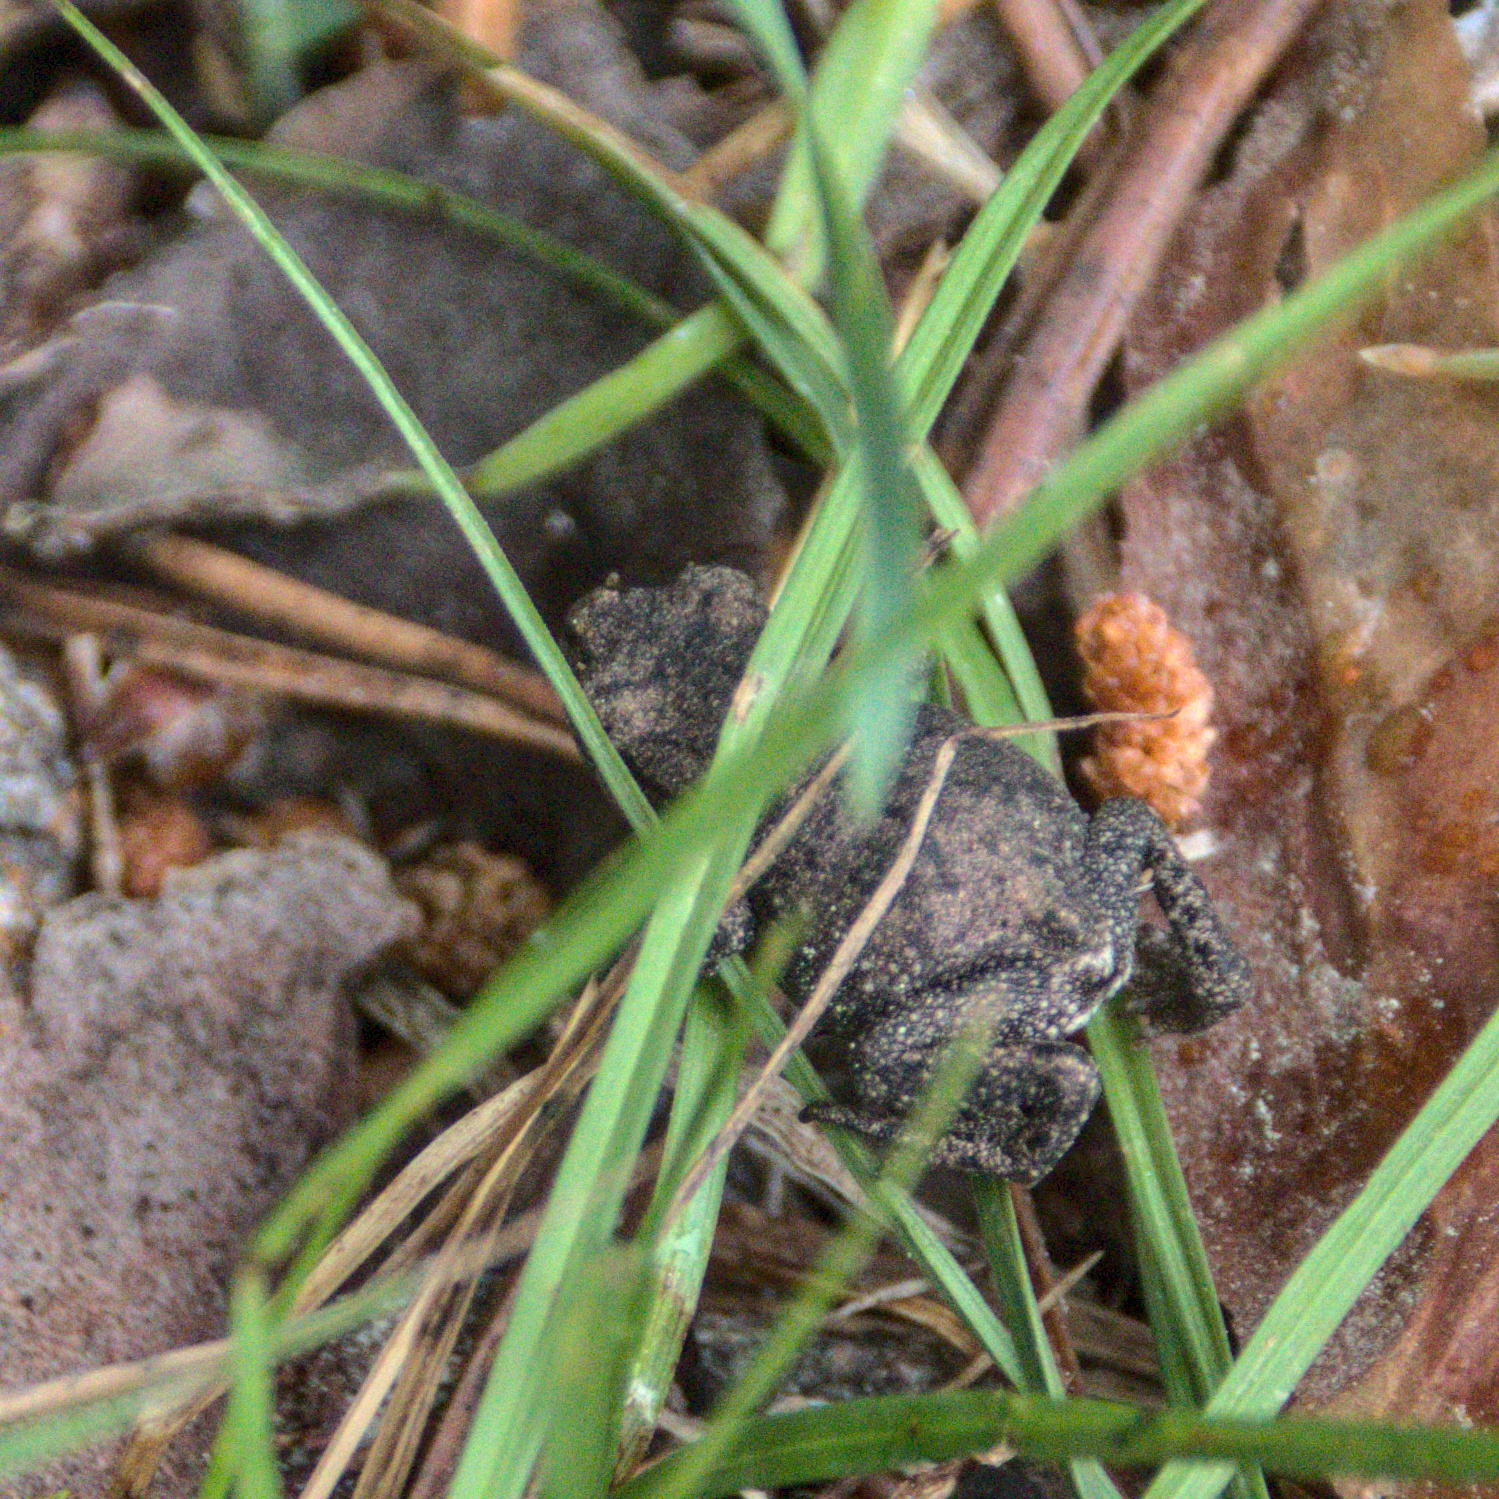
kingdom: Animalia
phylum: Chordata
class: Amphibia
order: Anura
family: Bufonidae
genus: Bufo
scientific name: Bufo bufo
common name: Common toad
